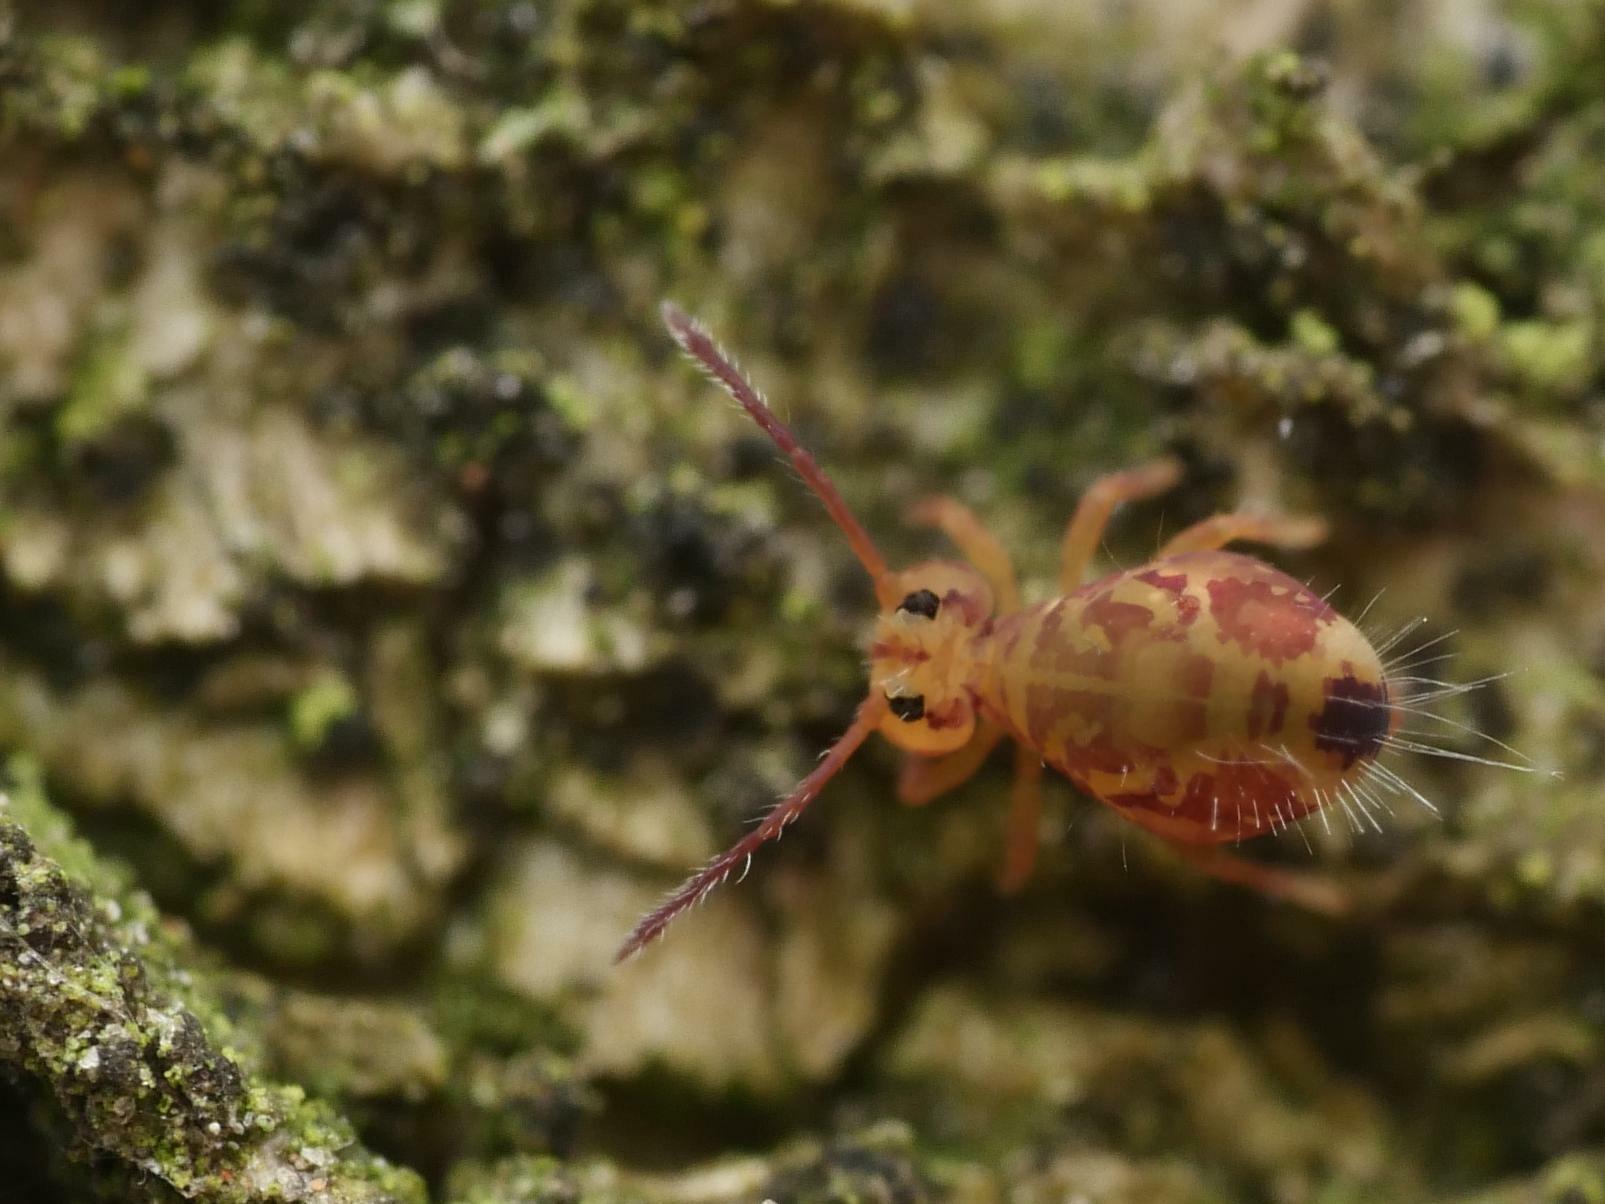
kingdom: Animalia
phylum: Arthropoda
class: Collembola
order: Symphypleona
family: Dicyrtomidae
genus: Dicyrtomina
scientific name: Dicyrtomina ornata
